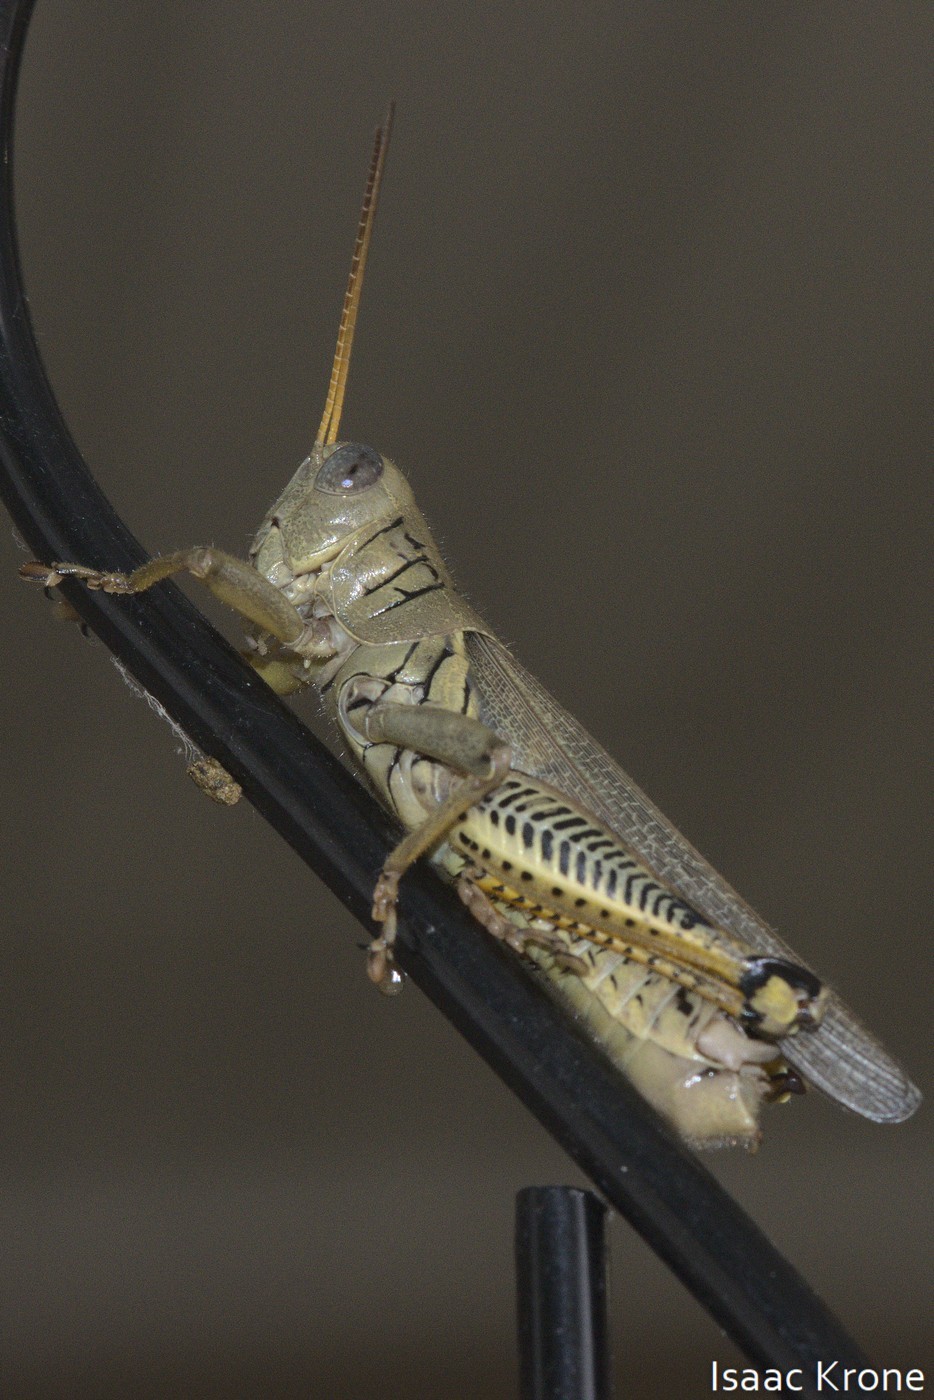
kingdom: Animalia
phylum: Arthropoda
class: Insecta
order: Orthoptera
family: Acrididae
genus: Melanoplus
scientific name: Melanoplus differentialis
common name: Differential grasshopper
